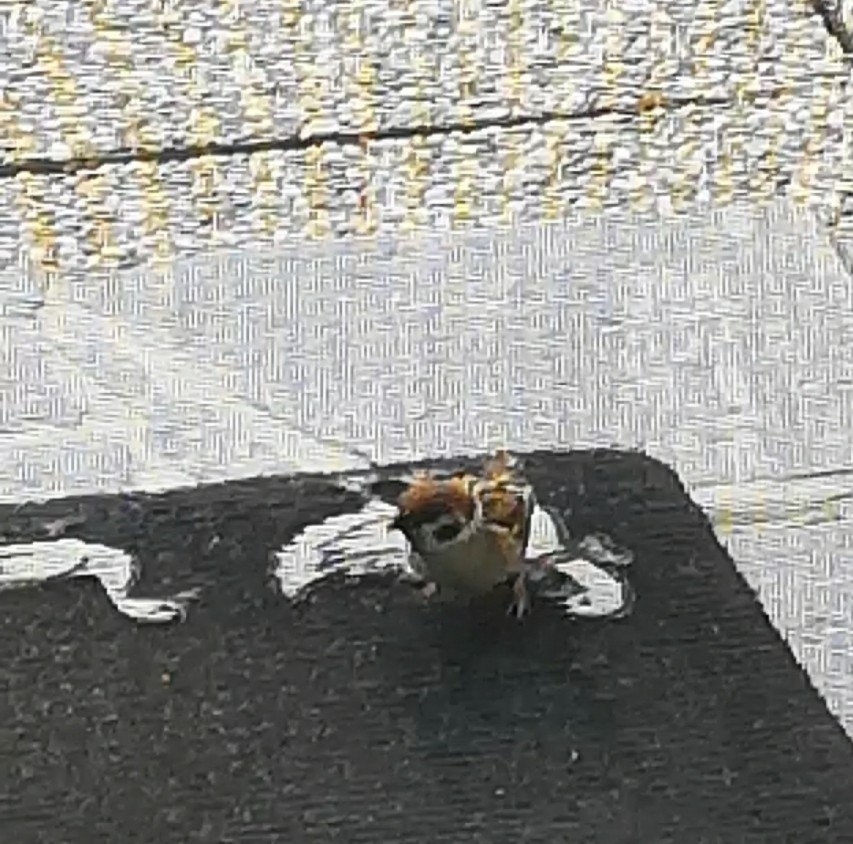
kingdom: Animalia
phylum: Chordata
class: Aves
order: Passeriformes
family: Passeridae
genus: Passer
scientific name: Passer montanus
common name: Eurasian tree sparrow
